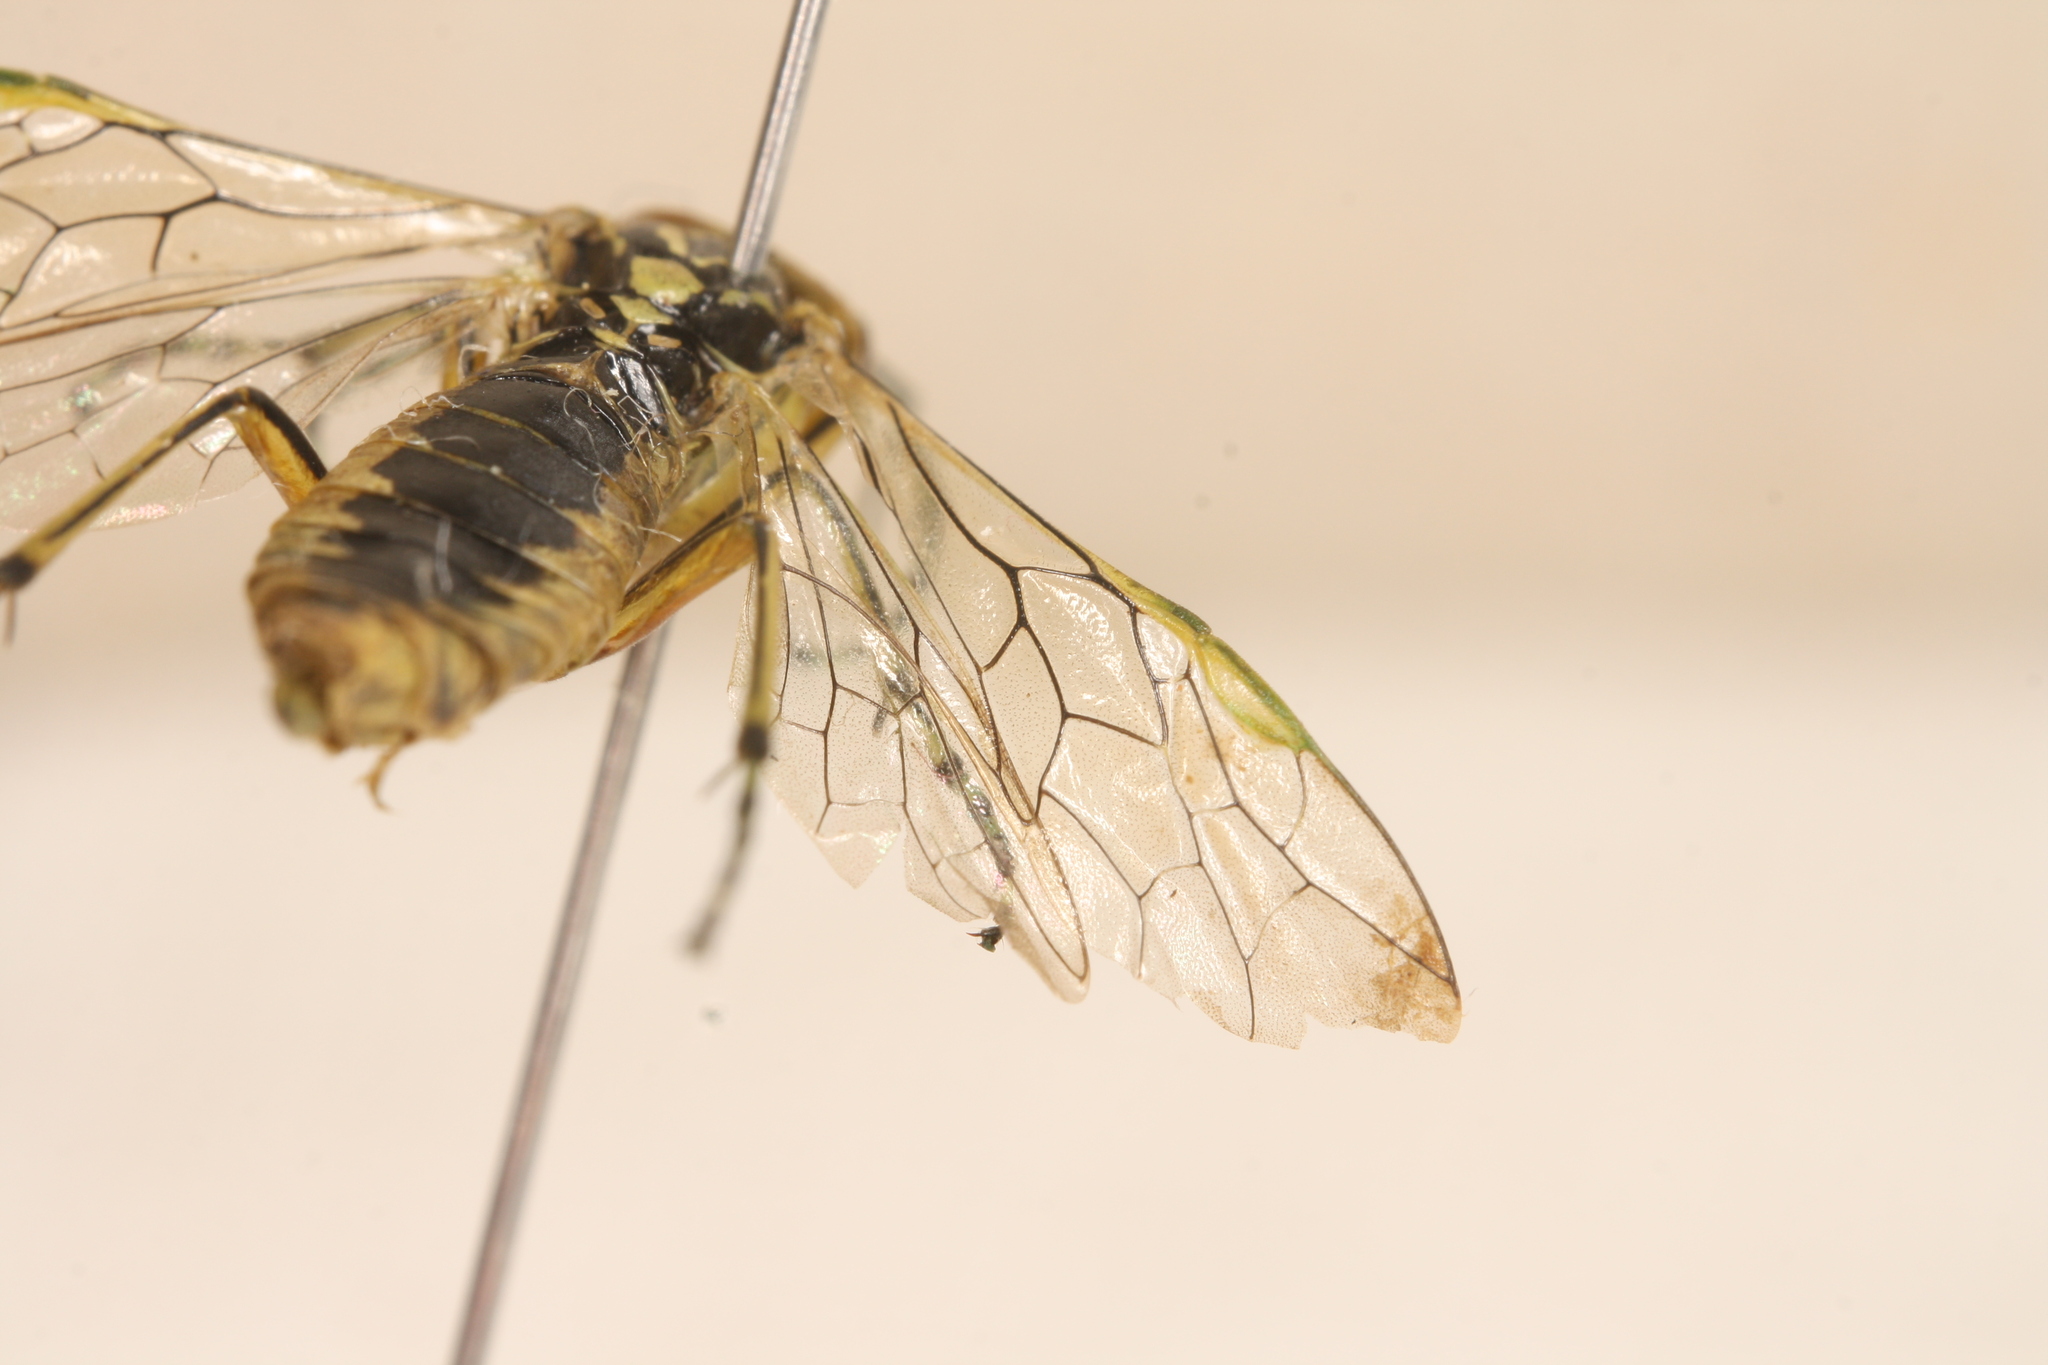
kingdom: Animalia
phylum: Arthropoda
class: Insecta
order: Hymenoptera
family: Tenthredinidae
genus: Rhogogaster
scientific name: Rhogogaster scalaris
